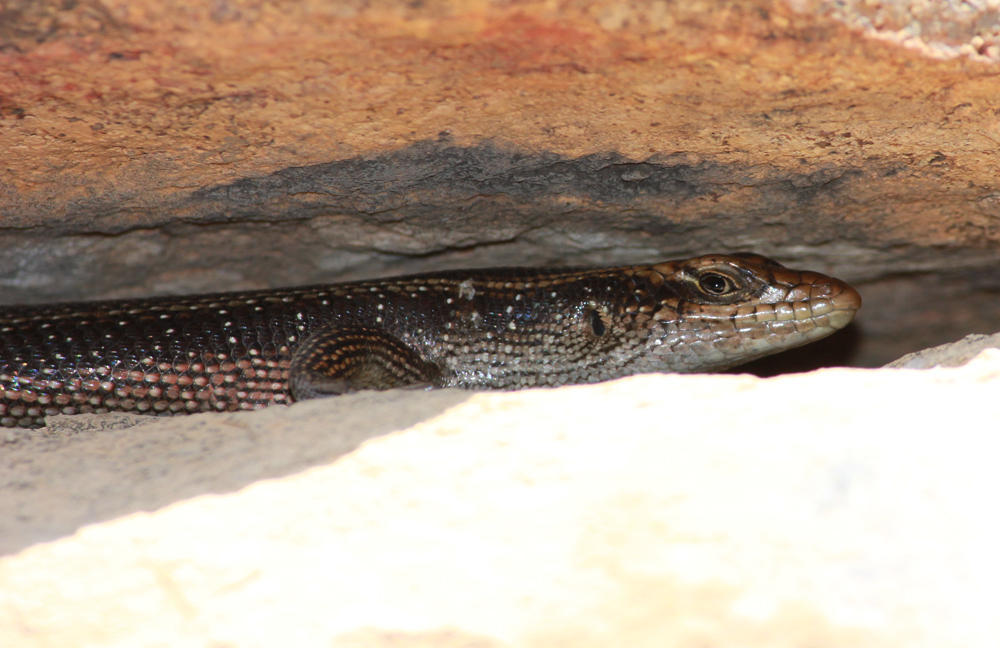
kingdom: Animalia
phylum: Chordata
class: Squamata
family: Scincidae
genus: Trachylepis
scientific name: Trachylepis margaritifera
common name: Rainbow skink
